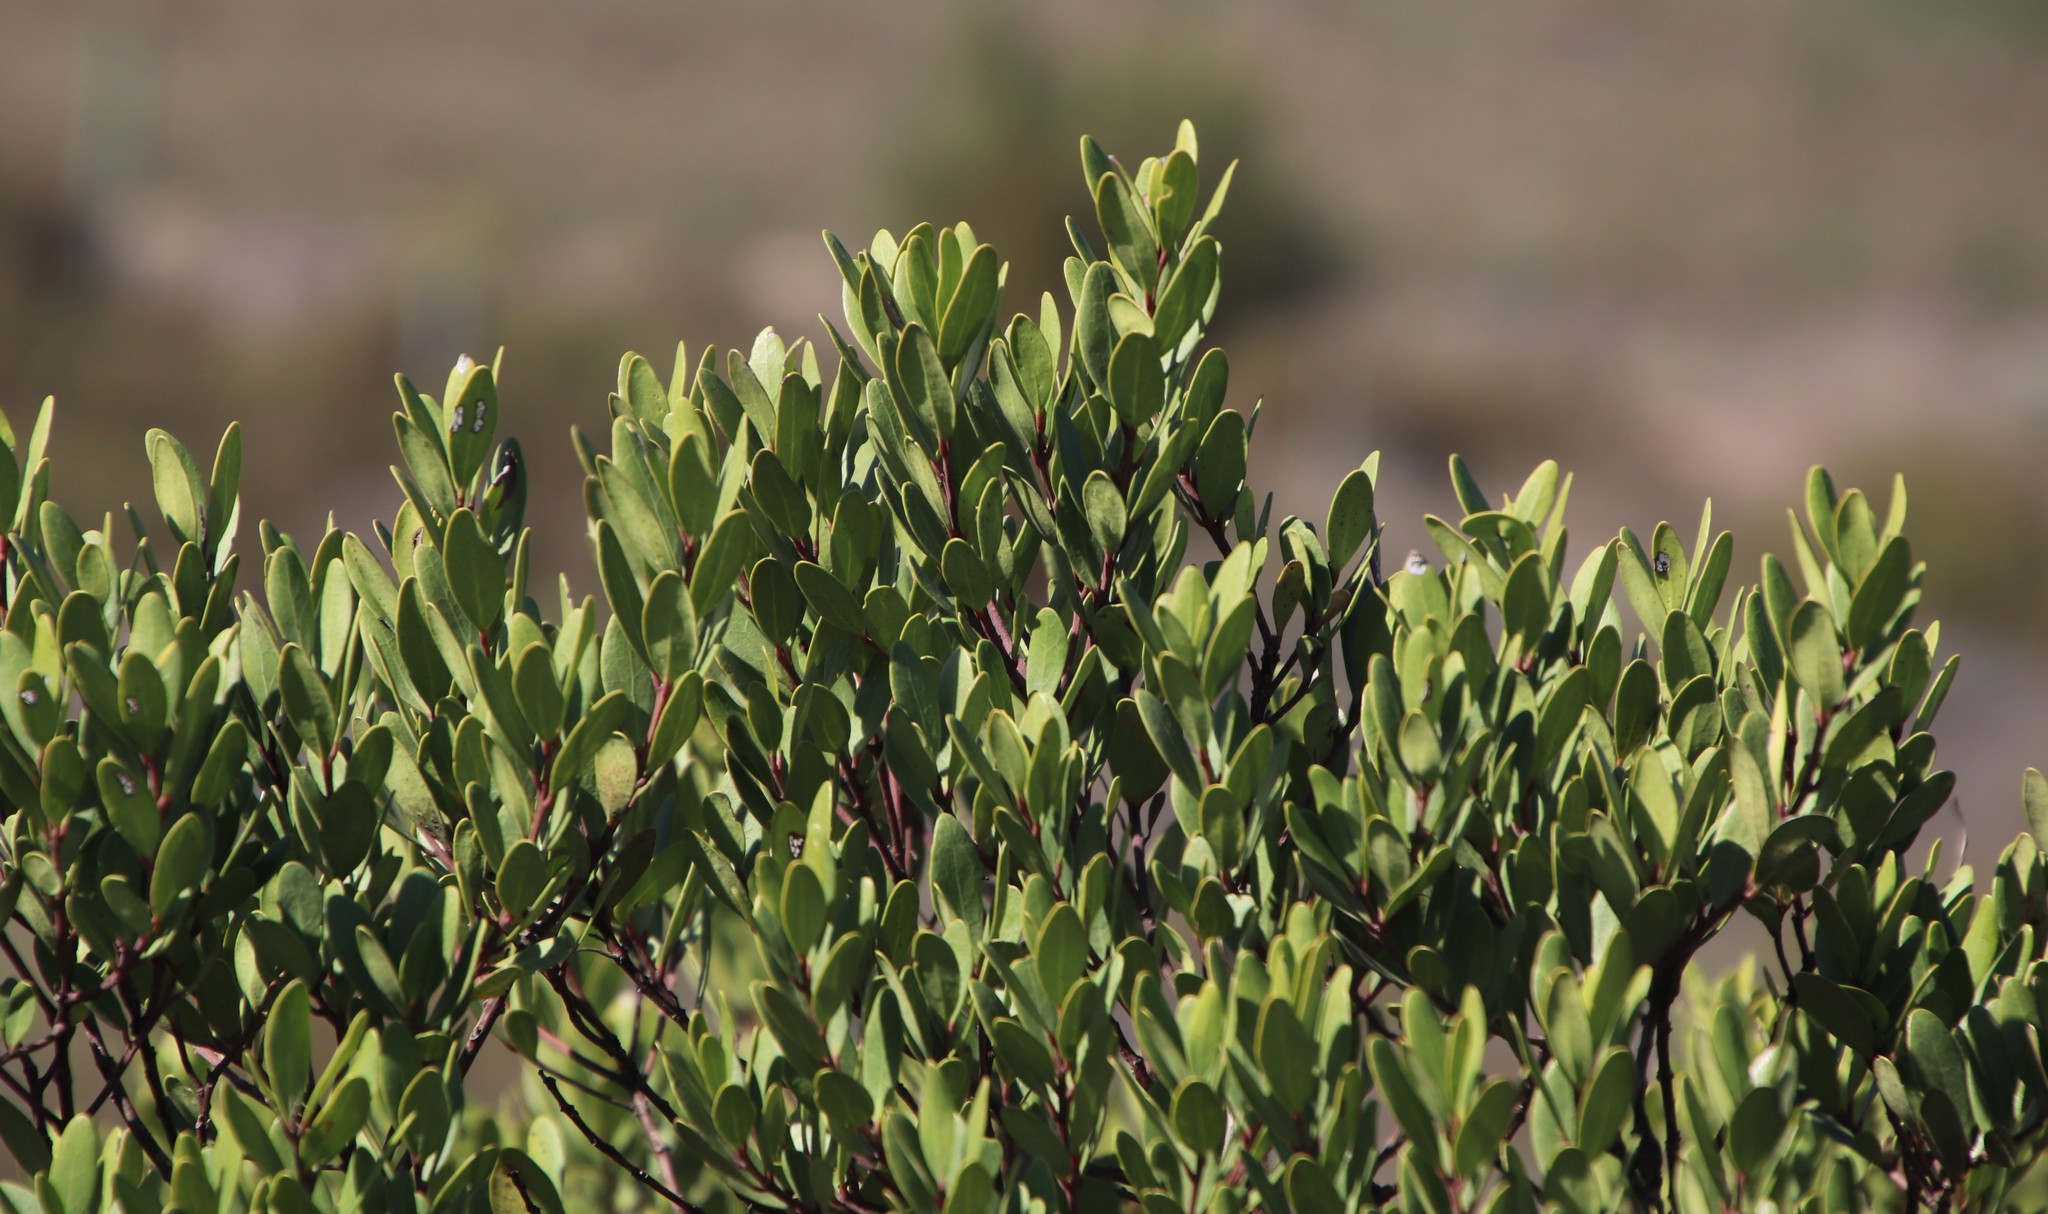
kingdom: Plantae
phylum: Tracheophyta
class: Magnoliopsida
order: Ericales
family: Ebenaceae
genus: Diospyros
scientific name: Diospyros glabra
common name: Fynbos star apple
